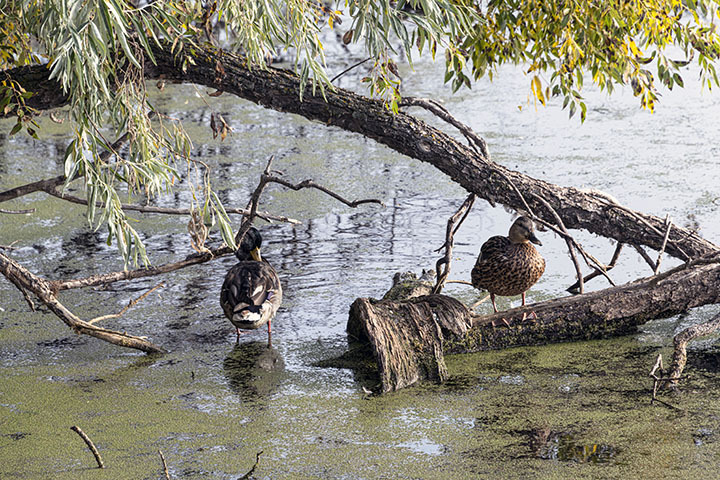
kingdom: Animalia
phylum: Chordata
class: Aves
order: Anseriformes
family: Anatidae
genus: Anas
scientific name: Anas platyrhynchos
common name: Mallard
